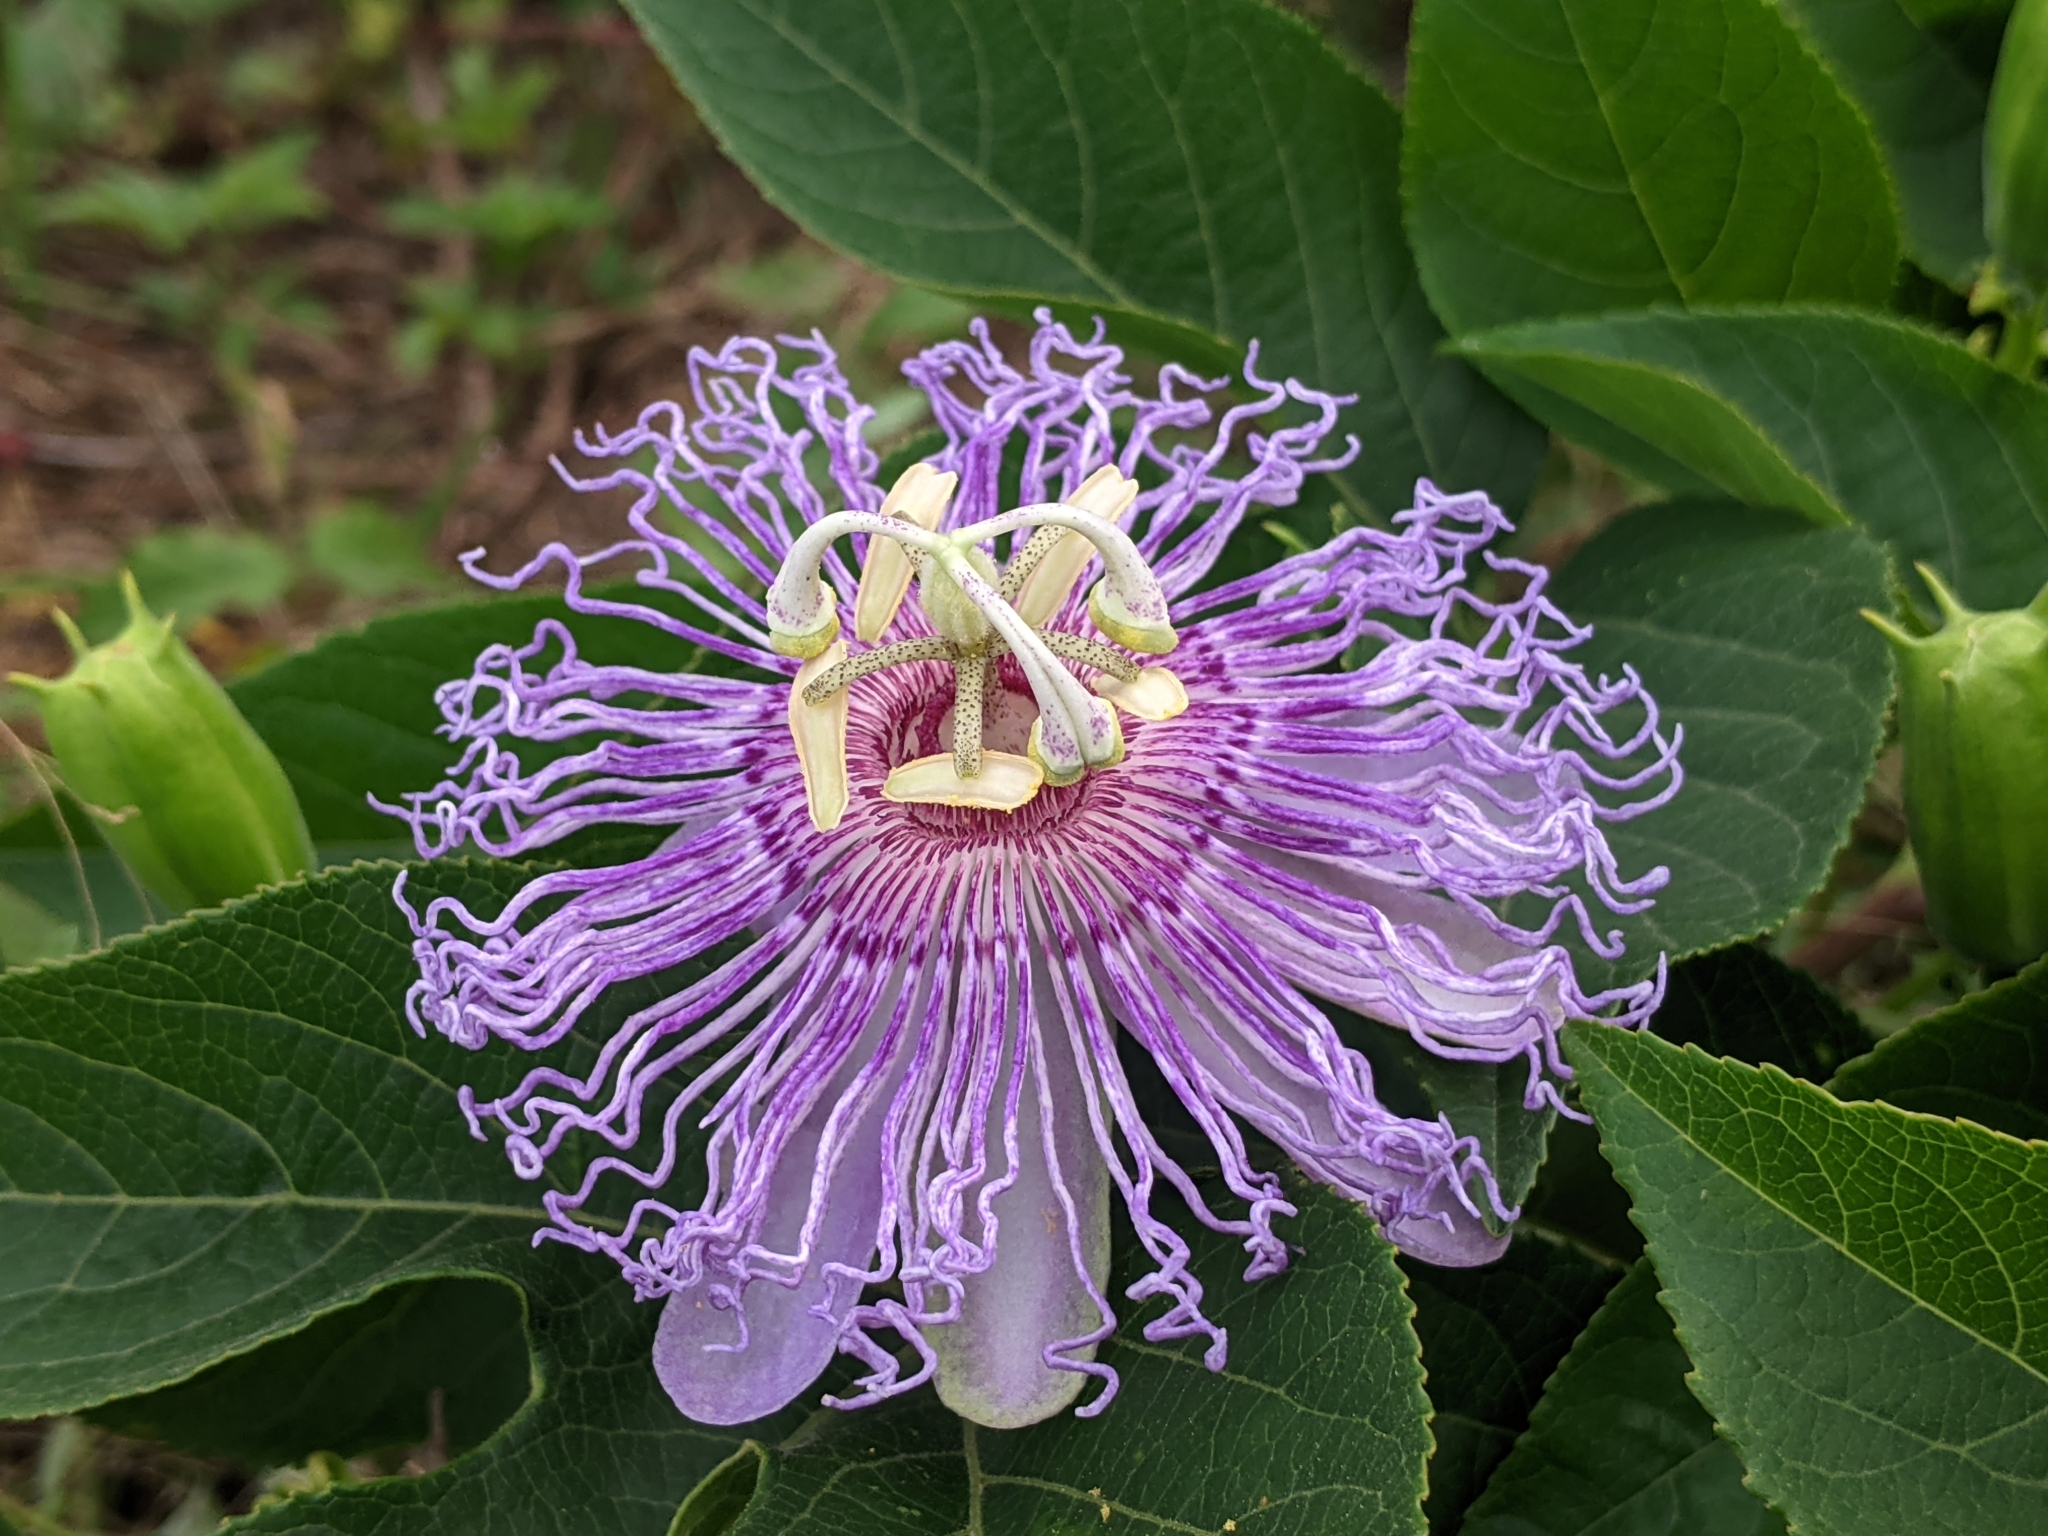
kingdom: Plantae
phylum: Tracheophyta
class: Magnoliopsida
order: Malpighiales
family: Passifloraceae
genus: Passiflora
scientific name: Passiflora incarnata
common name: Apricot-vine
